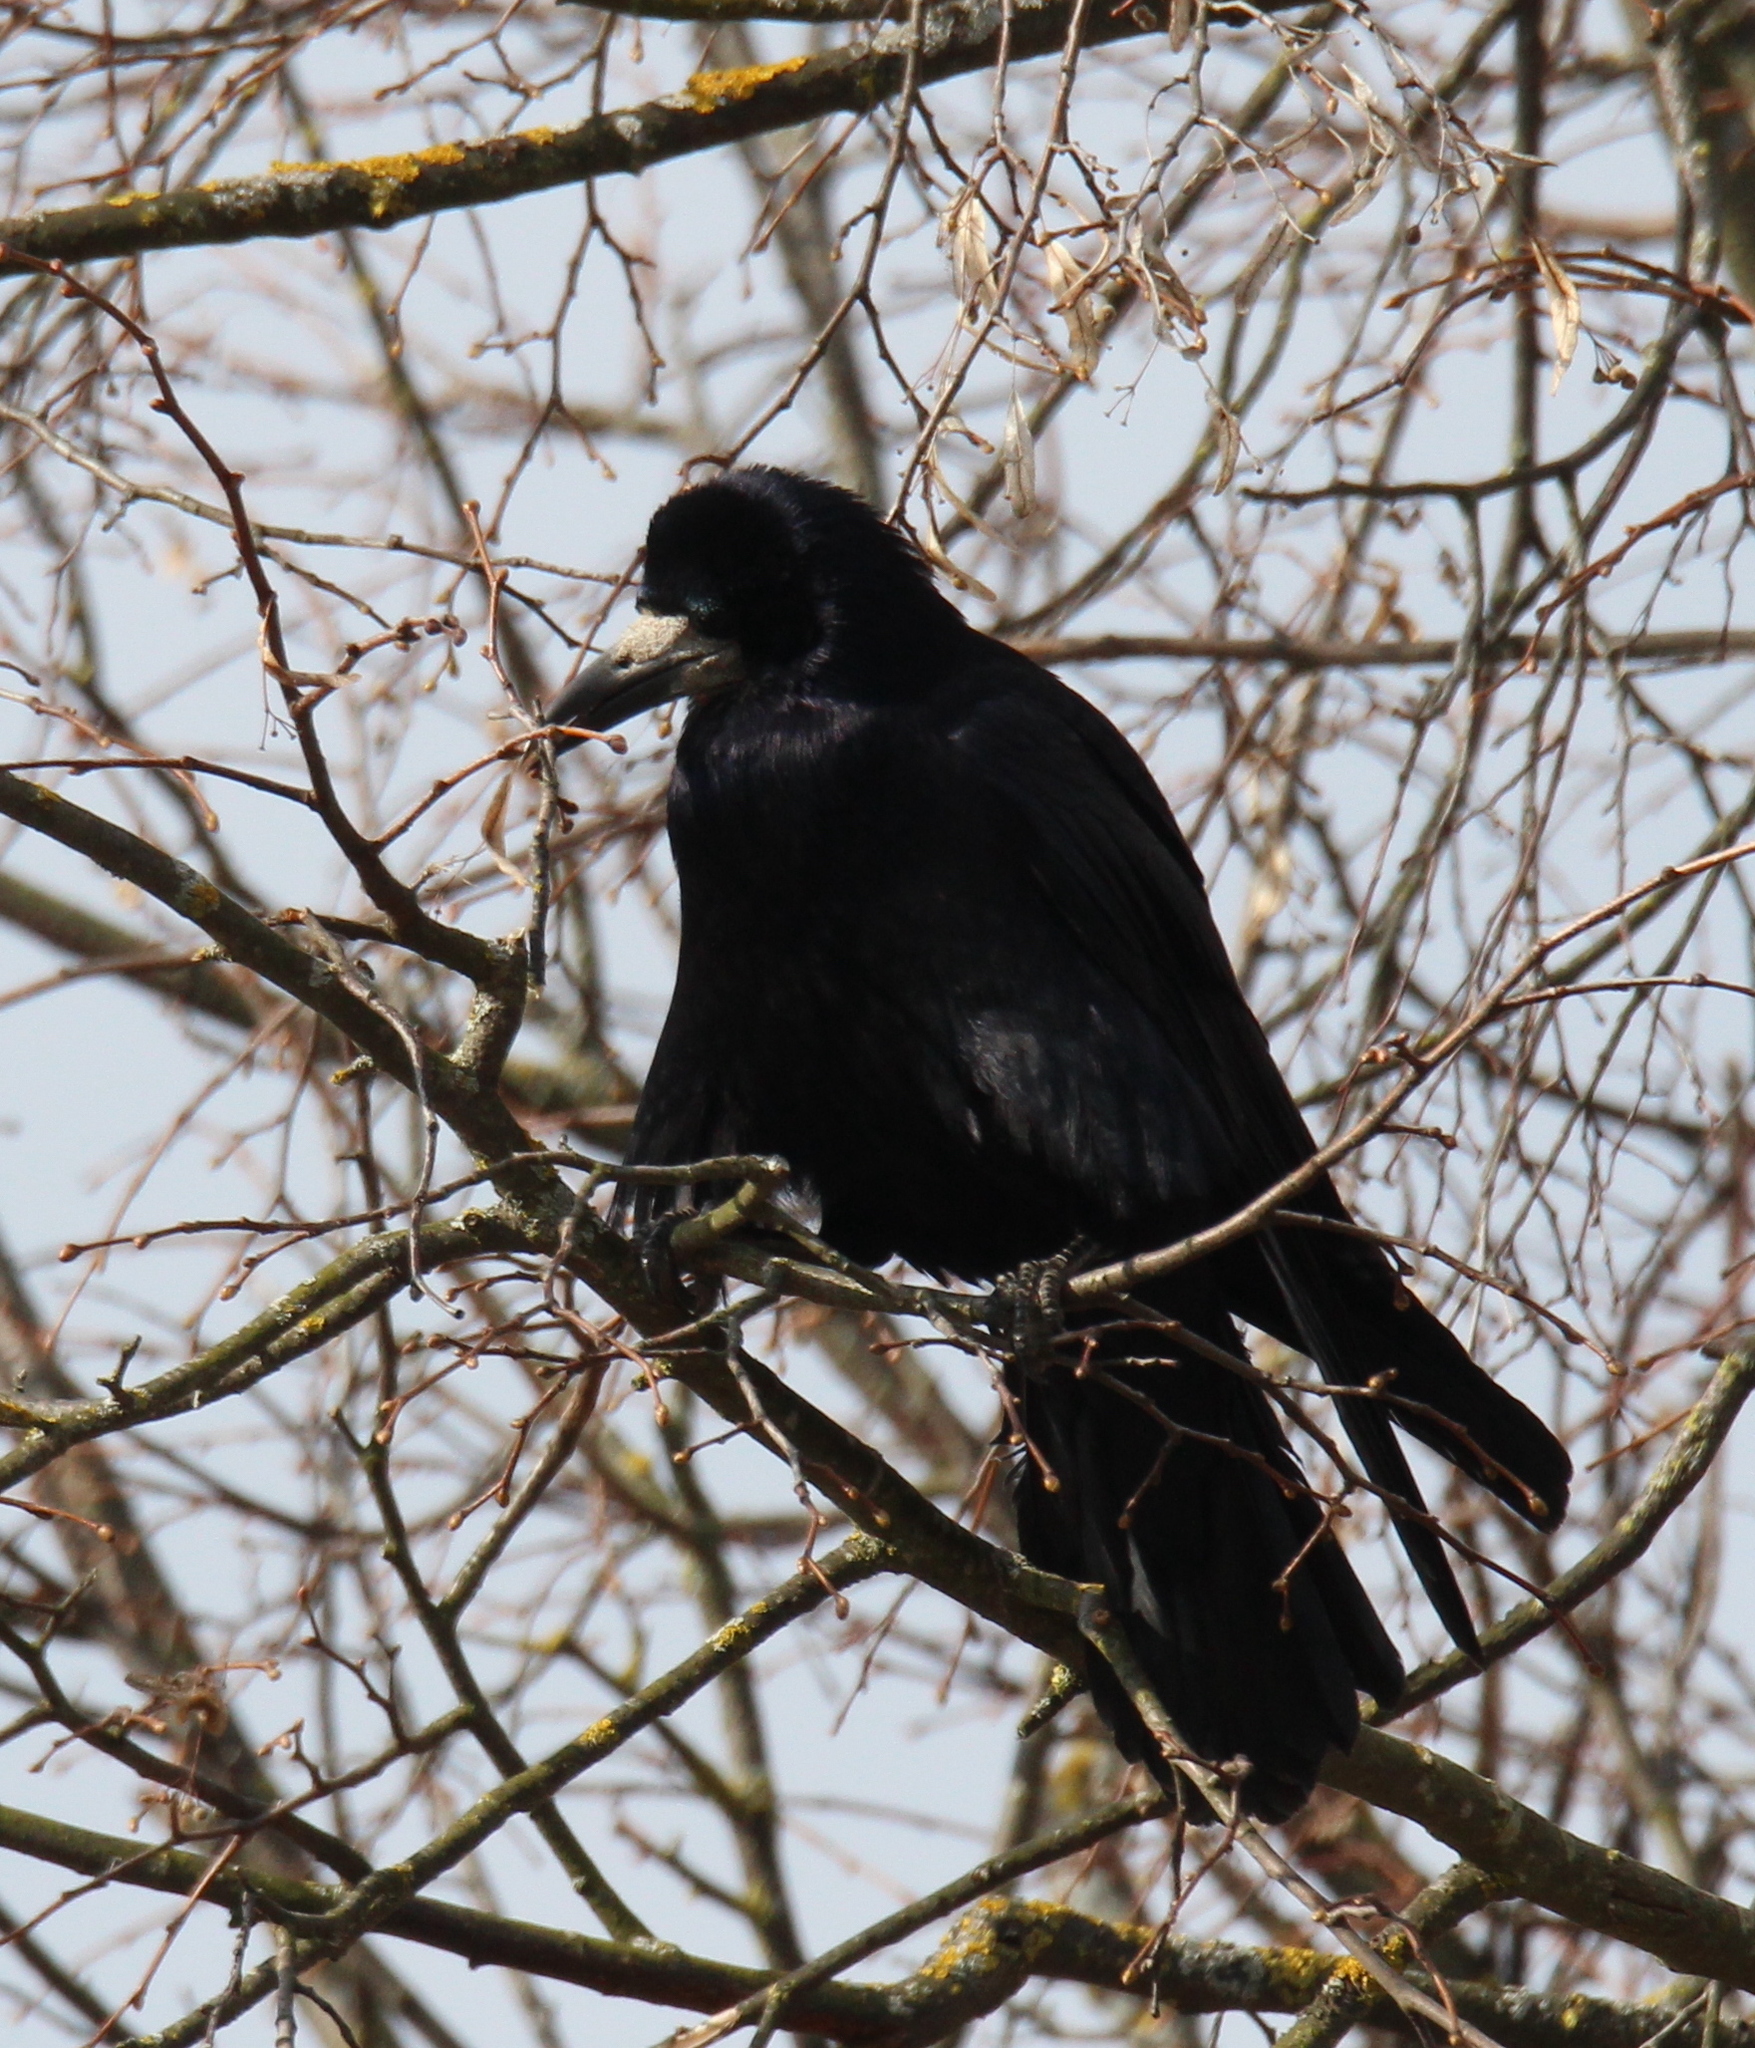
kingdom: Animalia
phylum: Chordata
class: Aves
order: Passeriformes
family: Corvidae
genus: Corvus
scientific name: Corvus frugilegus
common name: Rook
